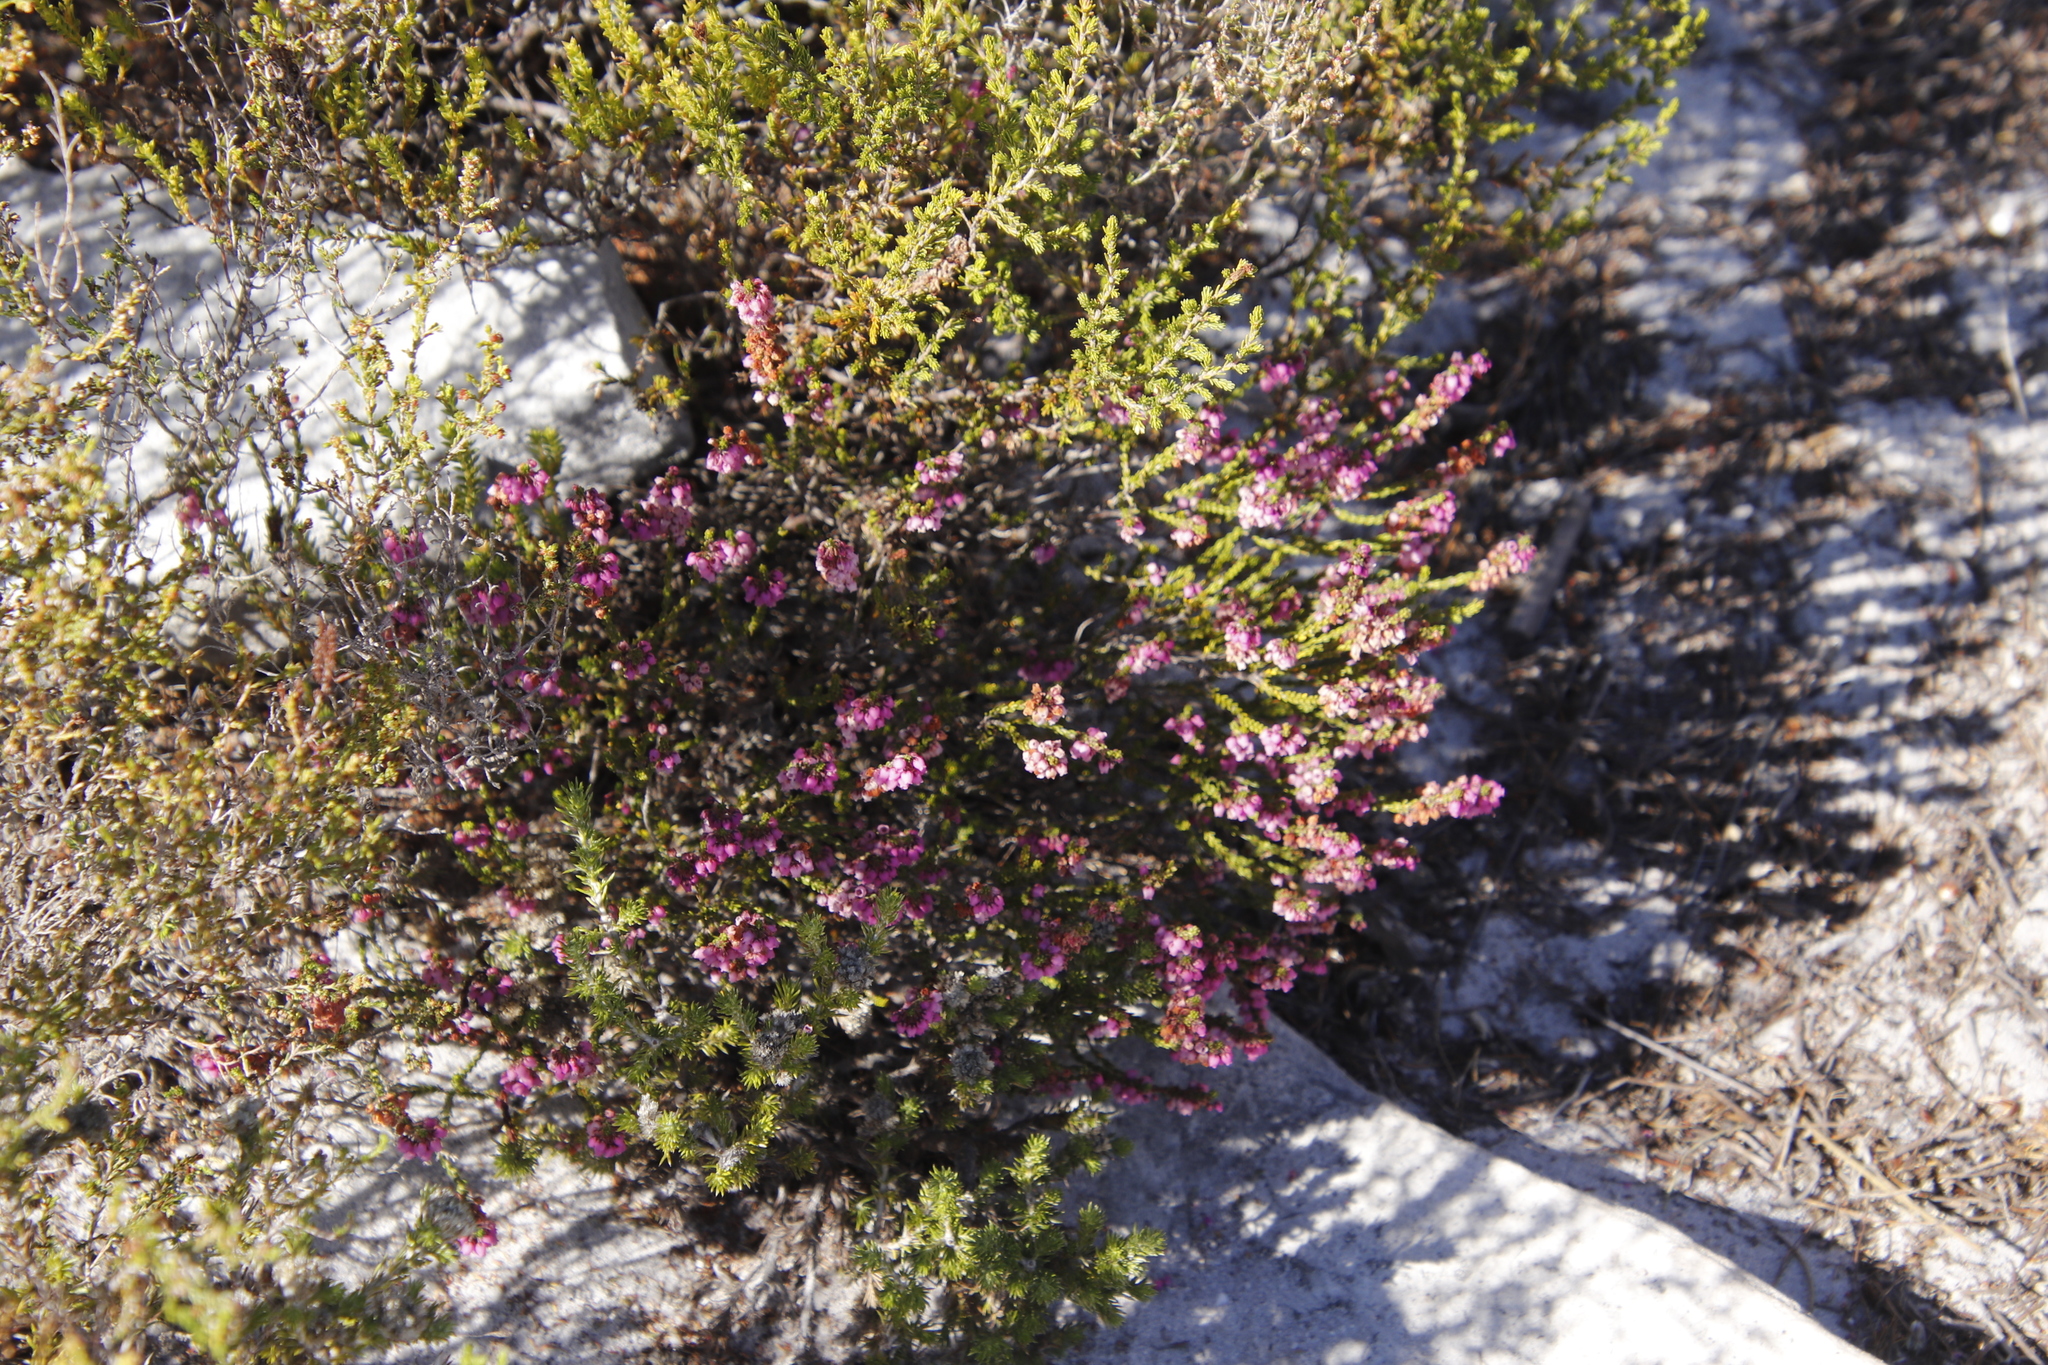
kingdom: Plantae
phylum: Tracheophyta
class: Magnoliopsida
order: Ericales
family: Ericaceae
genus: Erica
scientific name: Erica pulchella
